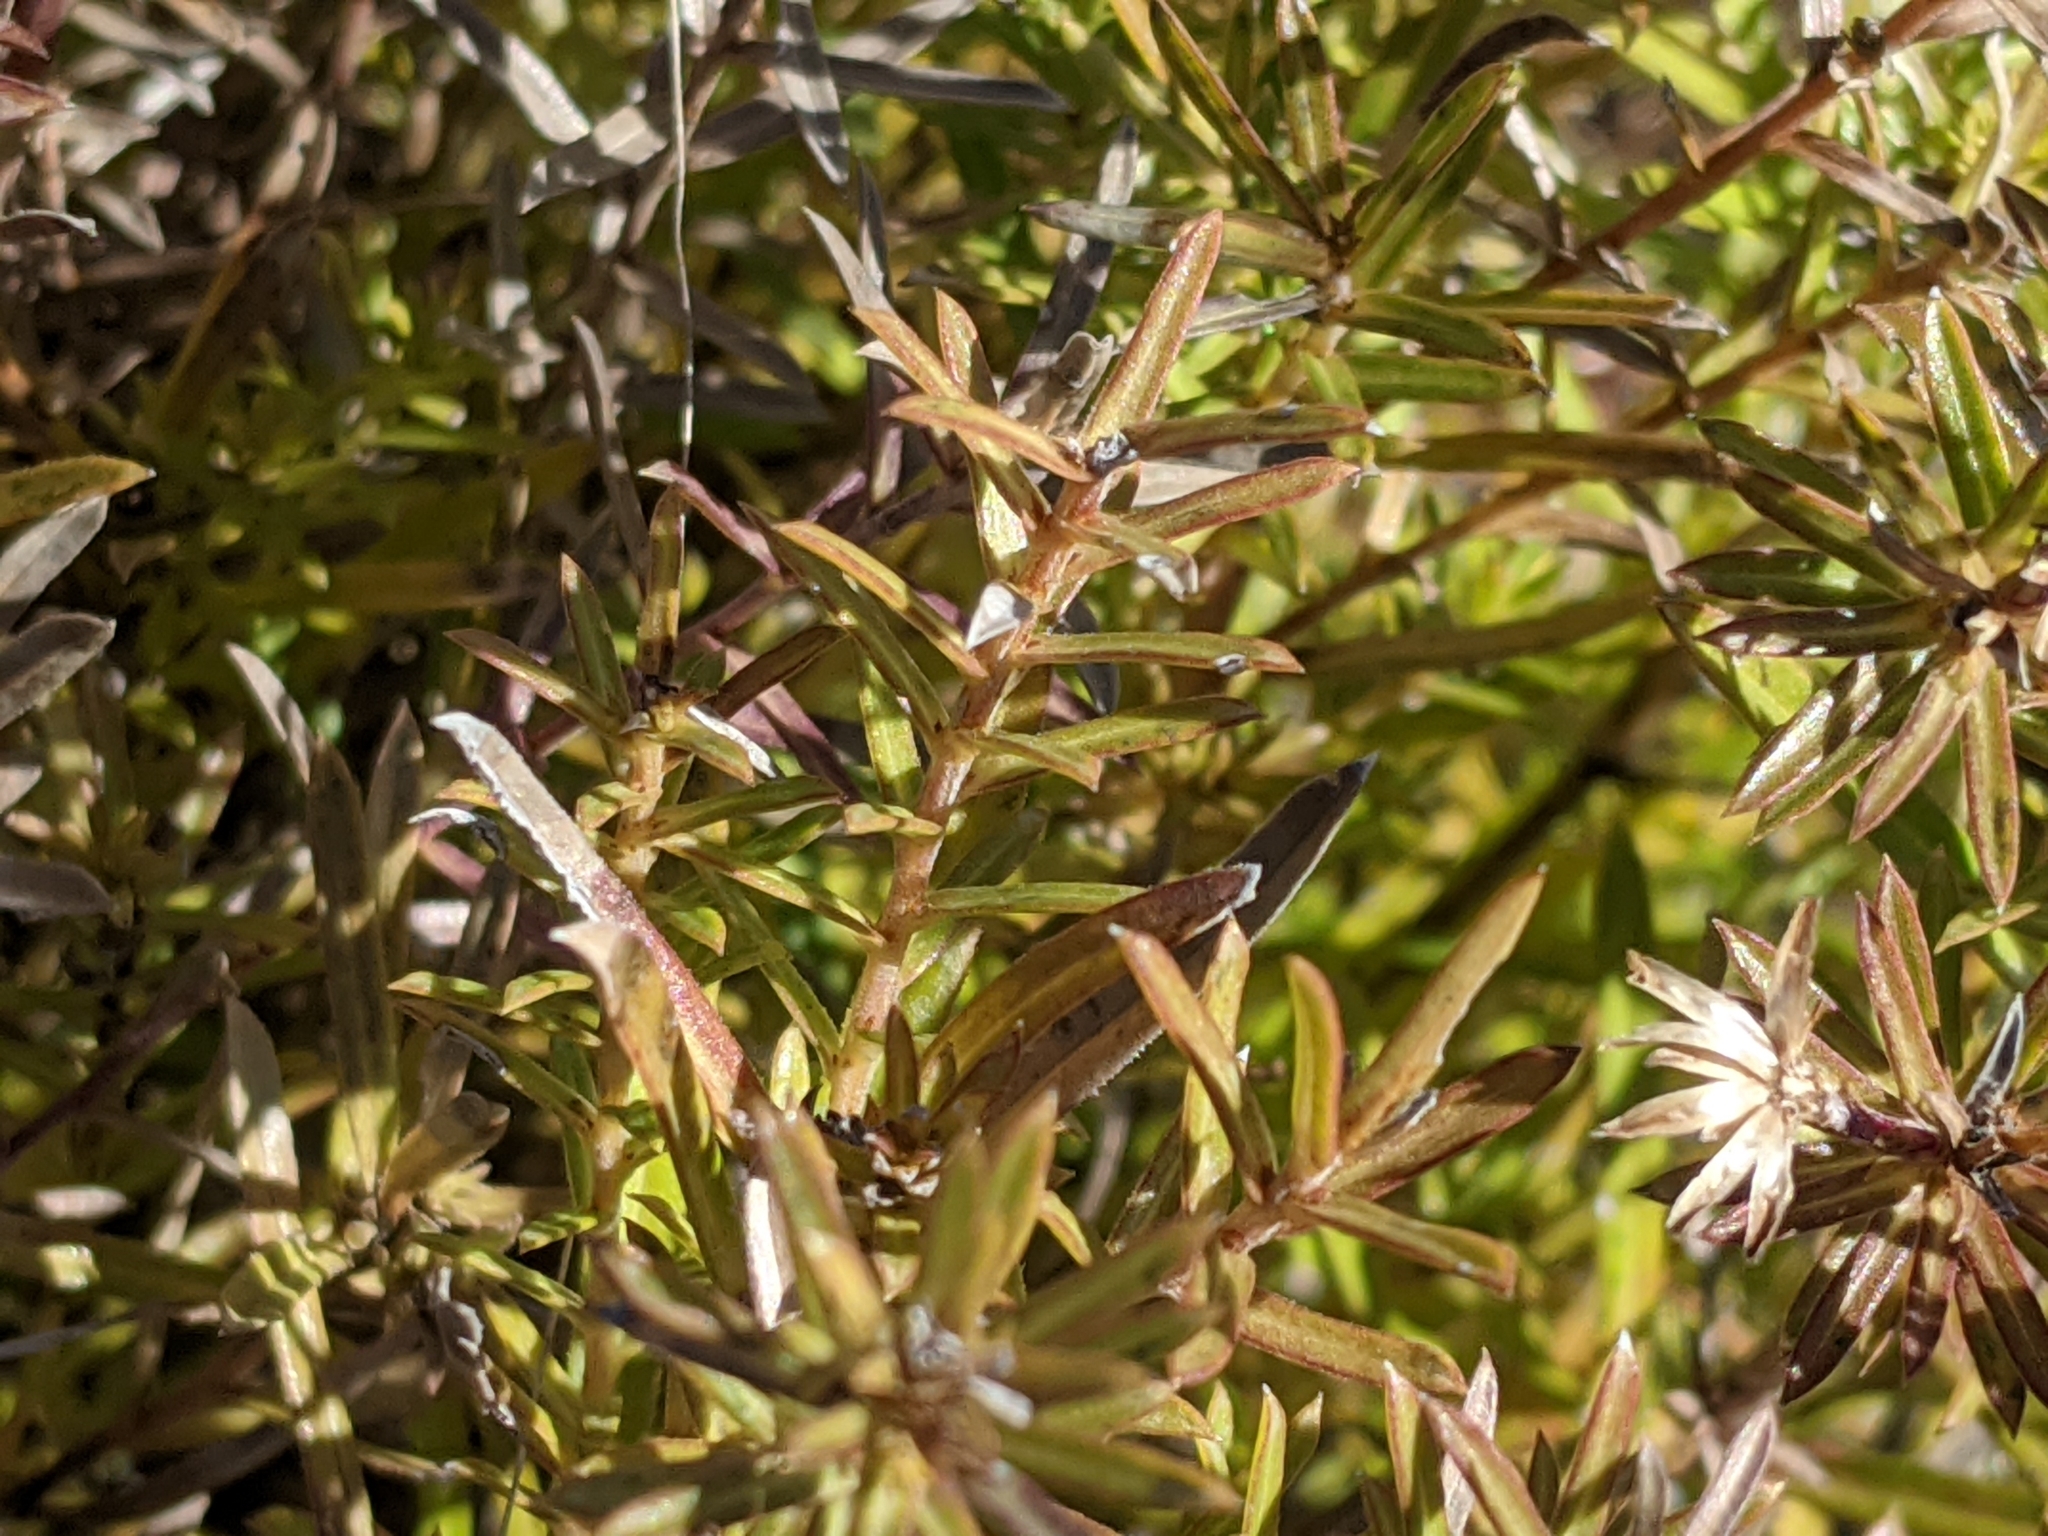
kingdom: Plantae
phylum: Tracheophyta
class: Magnoliopsida
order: Asterales
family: Asteraceae
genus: Ionactis
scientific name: Ionactis linariifolia
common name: Flax-leaf aster
